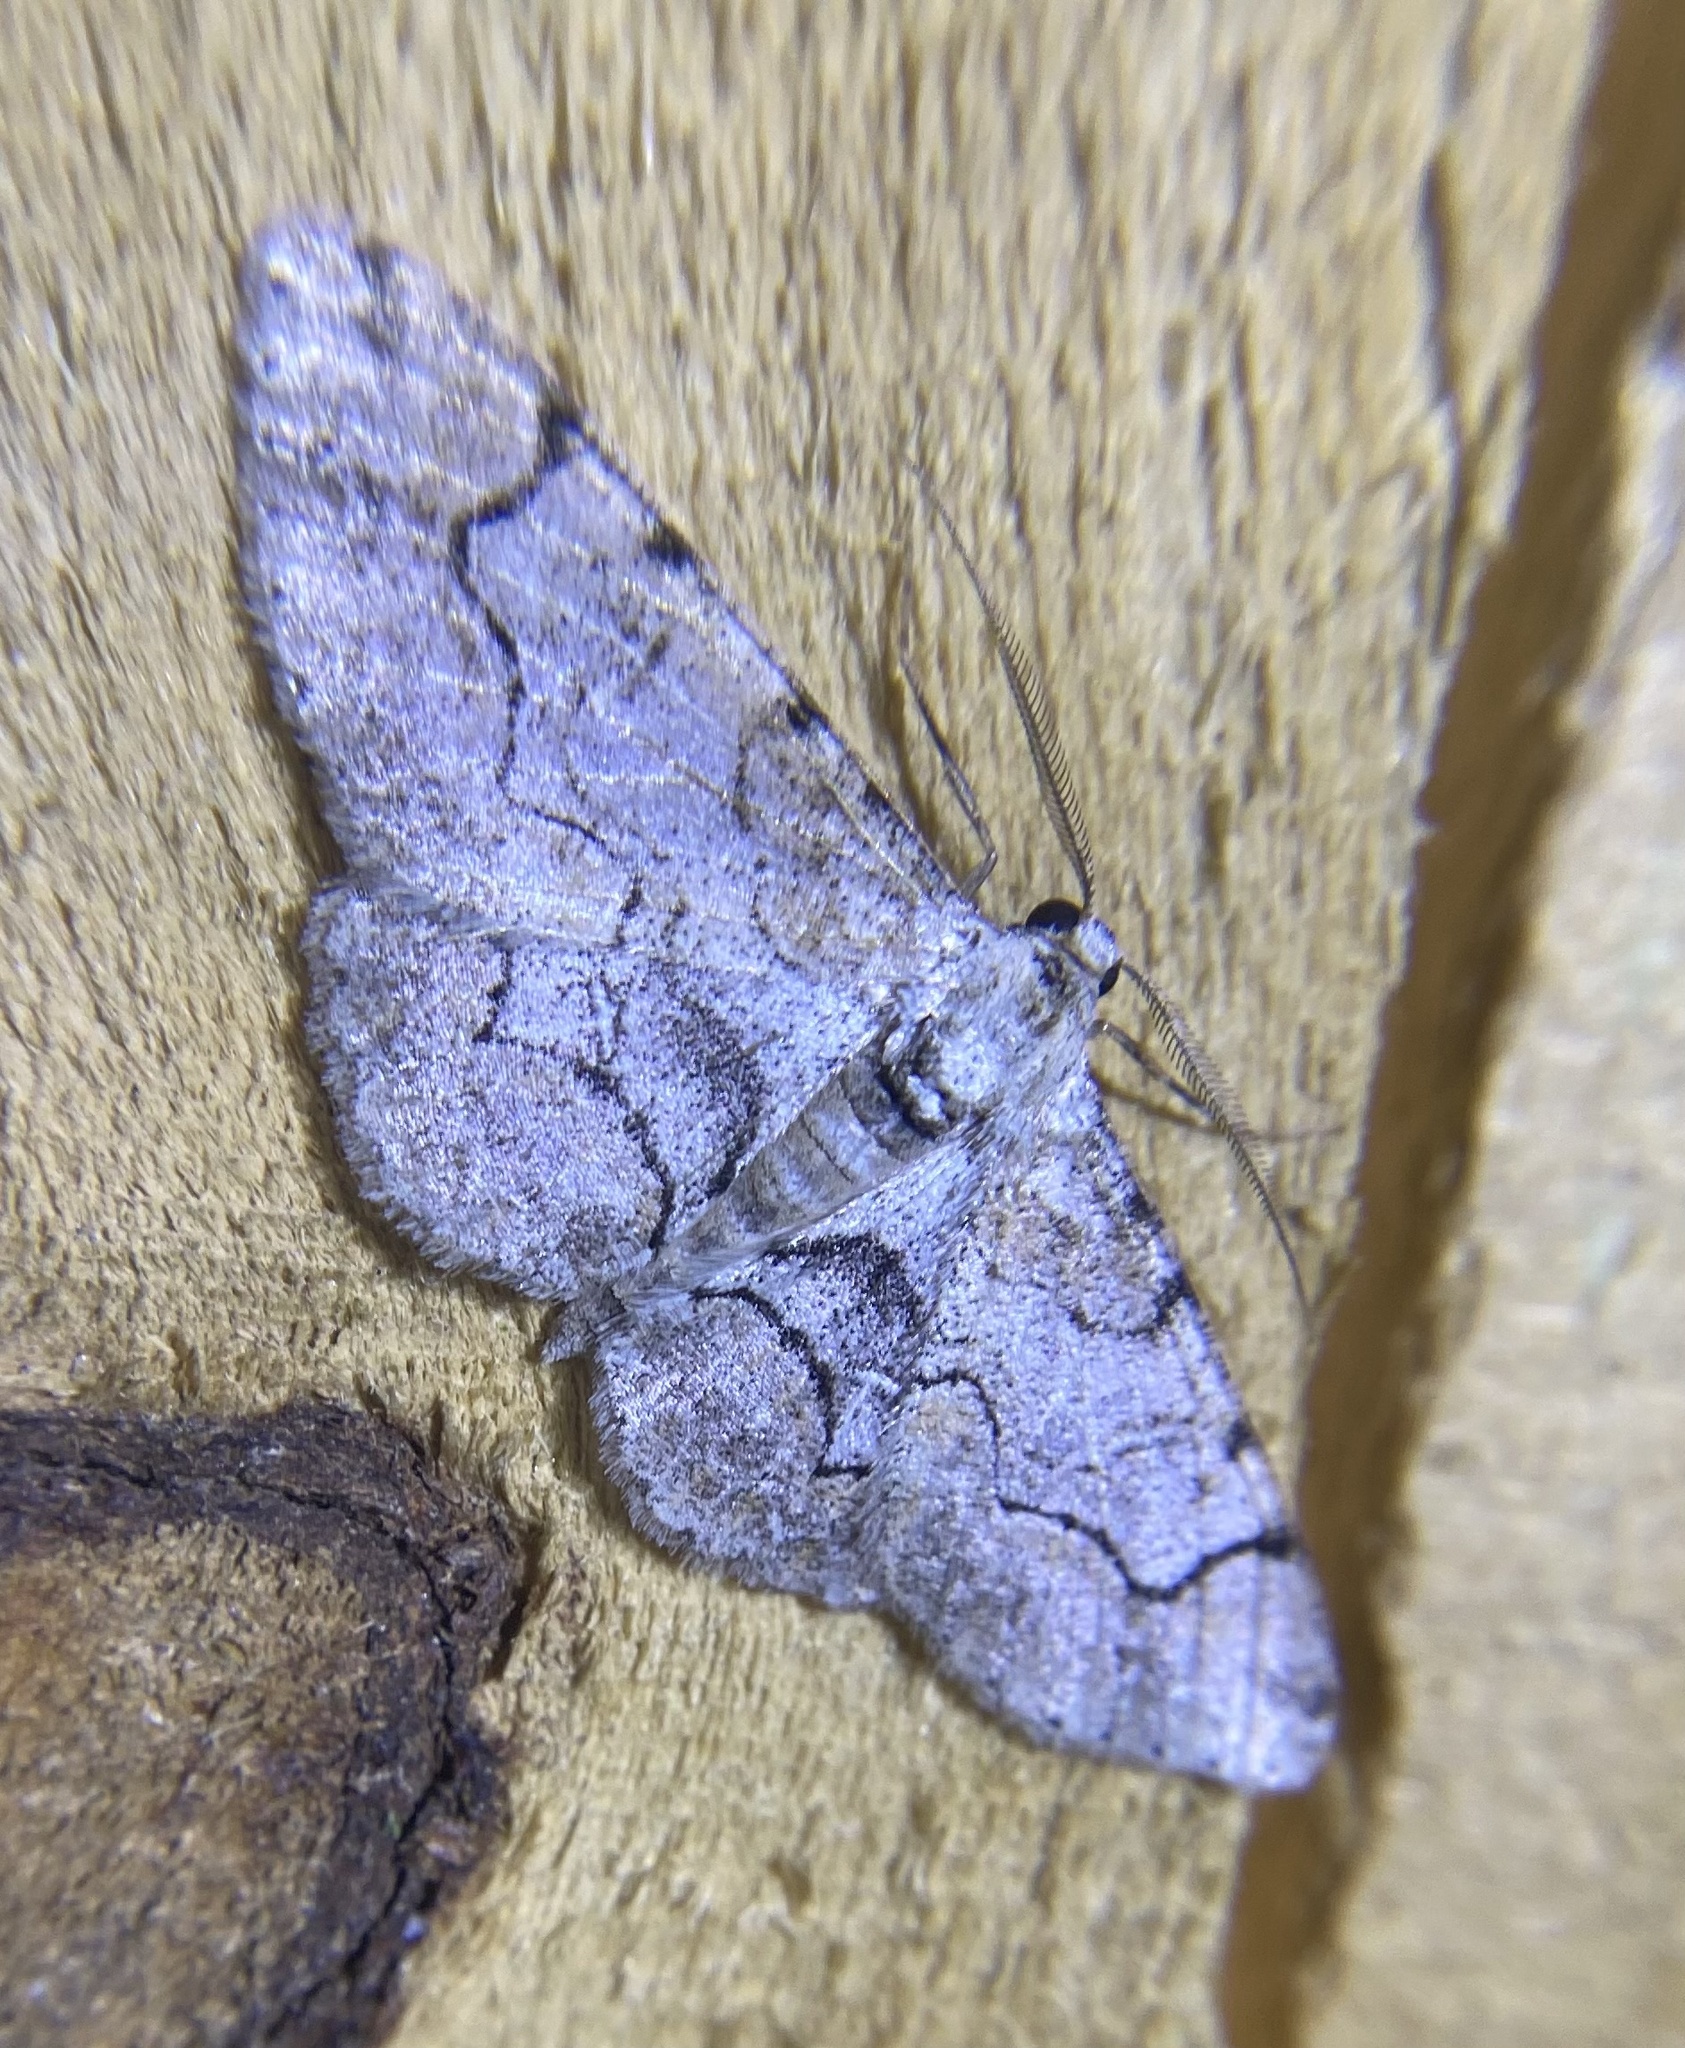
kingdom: Animalia
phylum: Arthropoda
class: Insecta
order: Lepidoptera
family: Geometridae
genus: Iridopsis
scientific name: Iridopsis larvaria
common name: Bent-line gray
